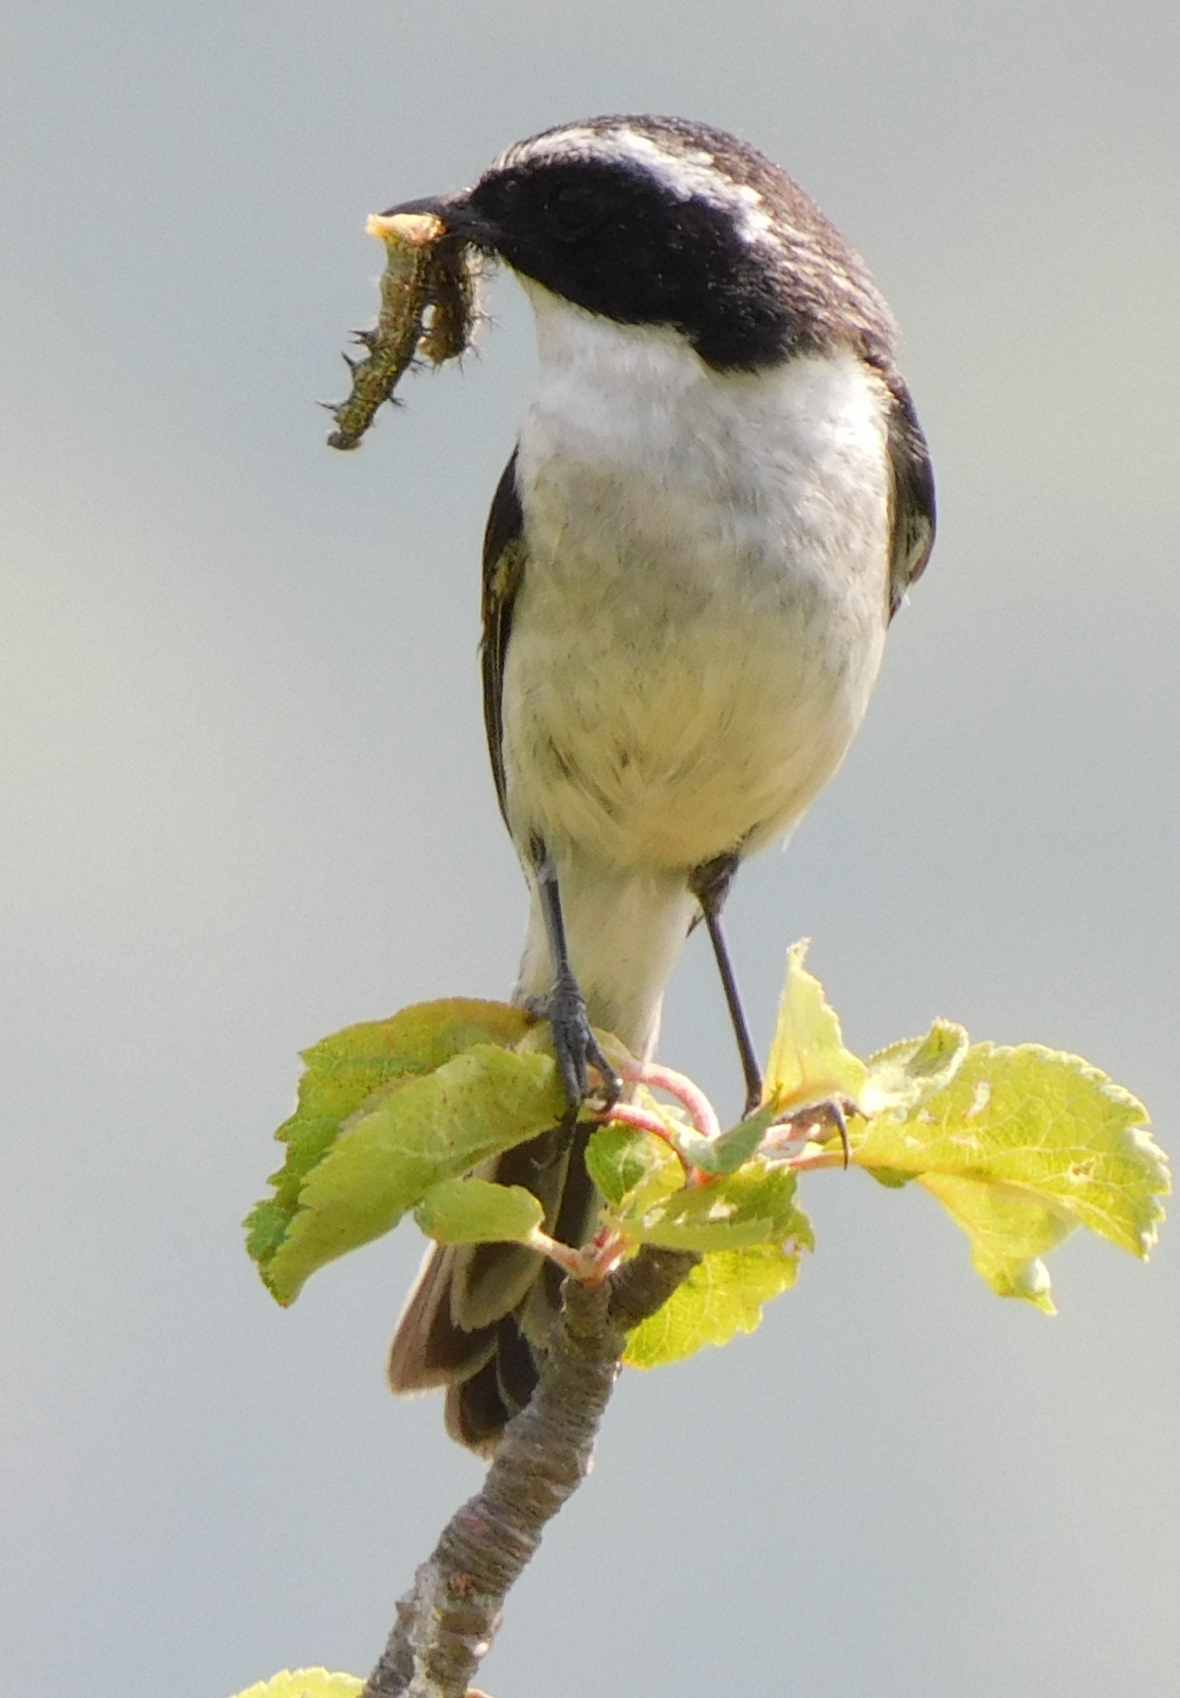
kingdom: Animalia
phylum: Chordata
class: Aves
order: Passeriformes
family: Muscicapidae
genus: Saxicola
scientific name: Saxicola ferreus
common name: Grey bush chat
